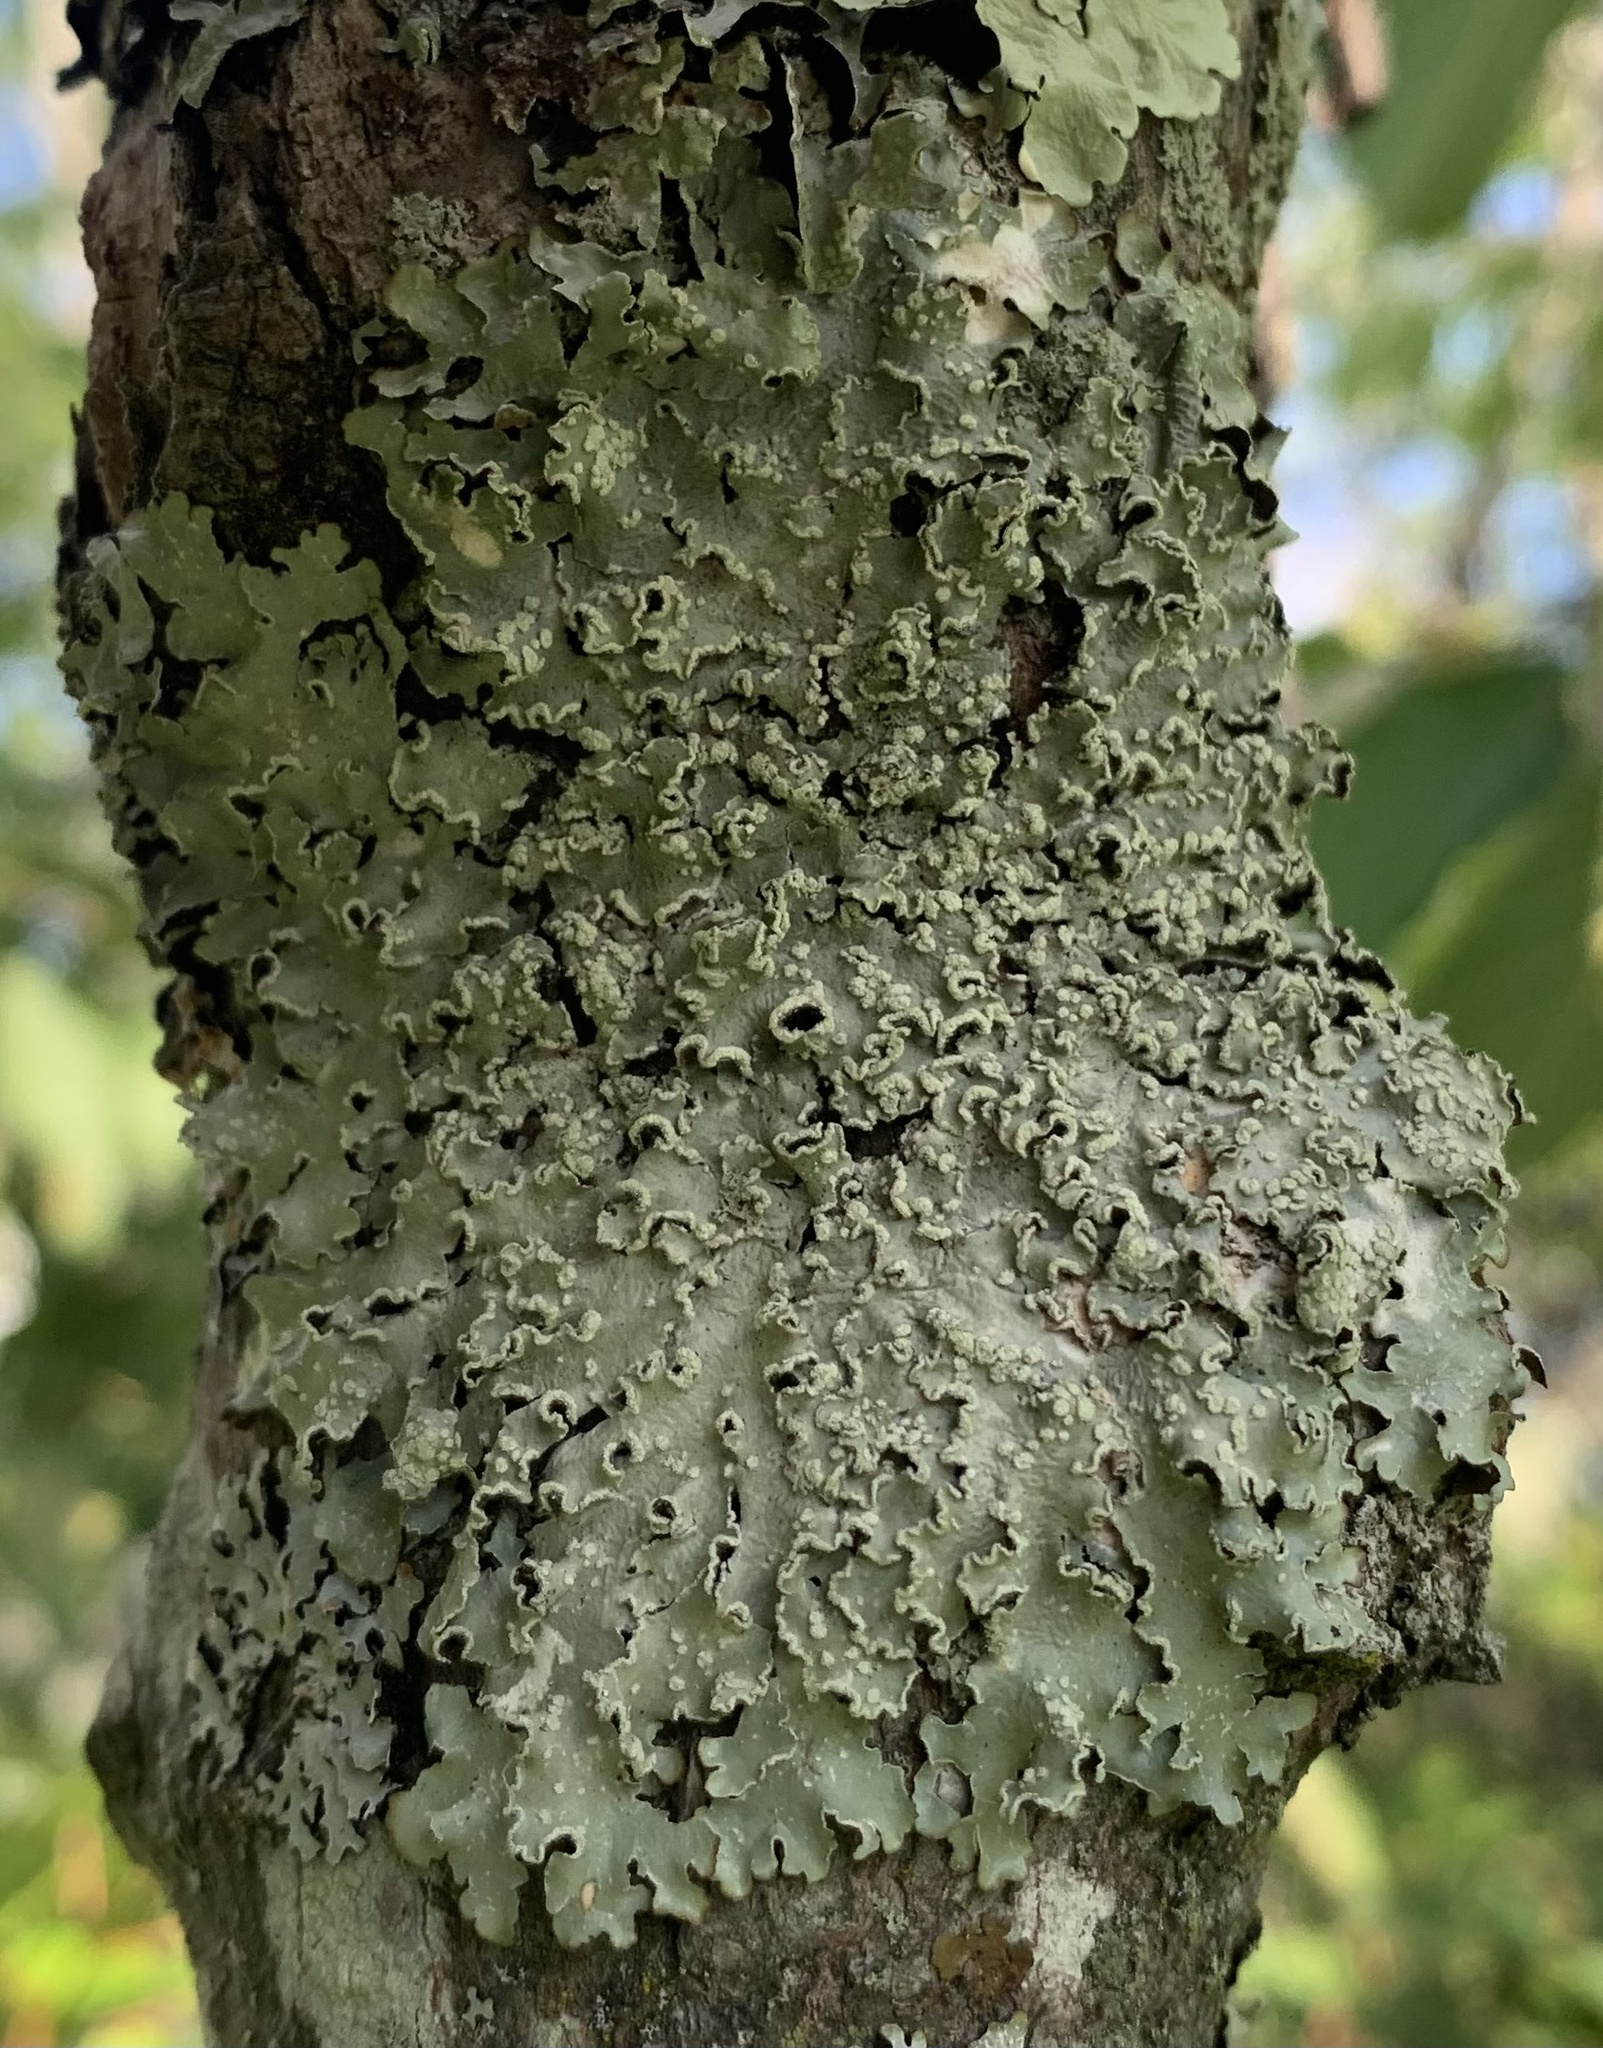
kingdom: Fungi
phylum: Ascomycota
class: Lecanoromycetes
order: Lecanorales
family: Parmeliaceae
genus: Punctelia
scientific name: Punctelia caseana
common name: Moondust speckled lichen
